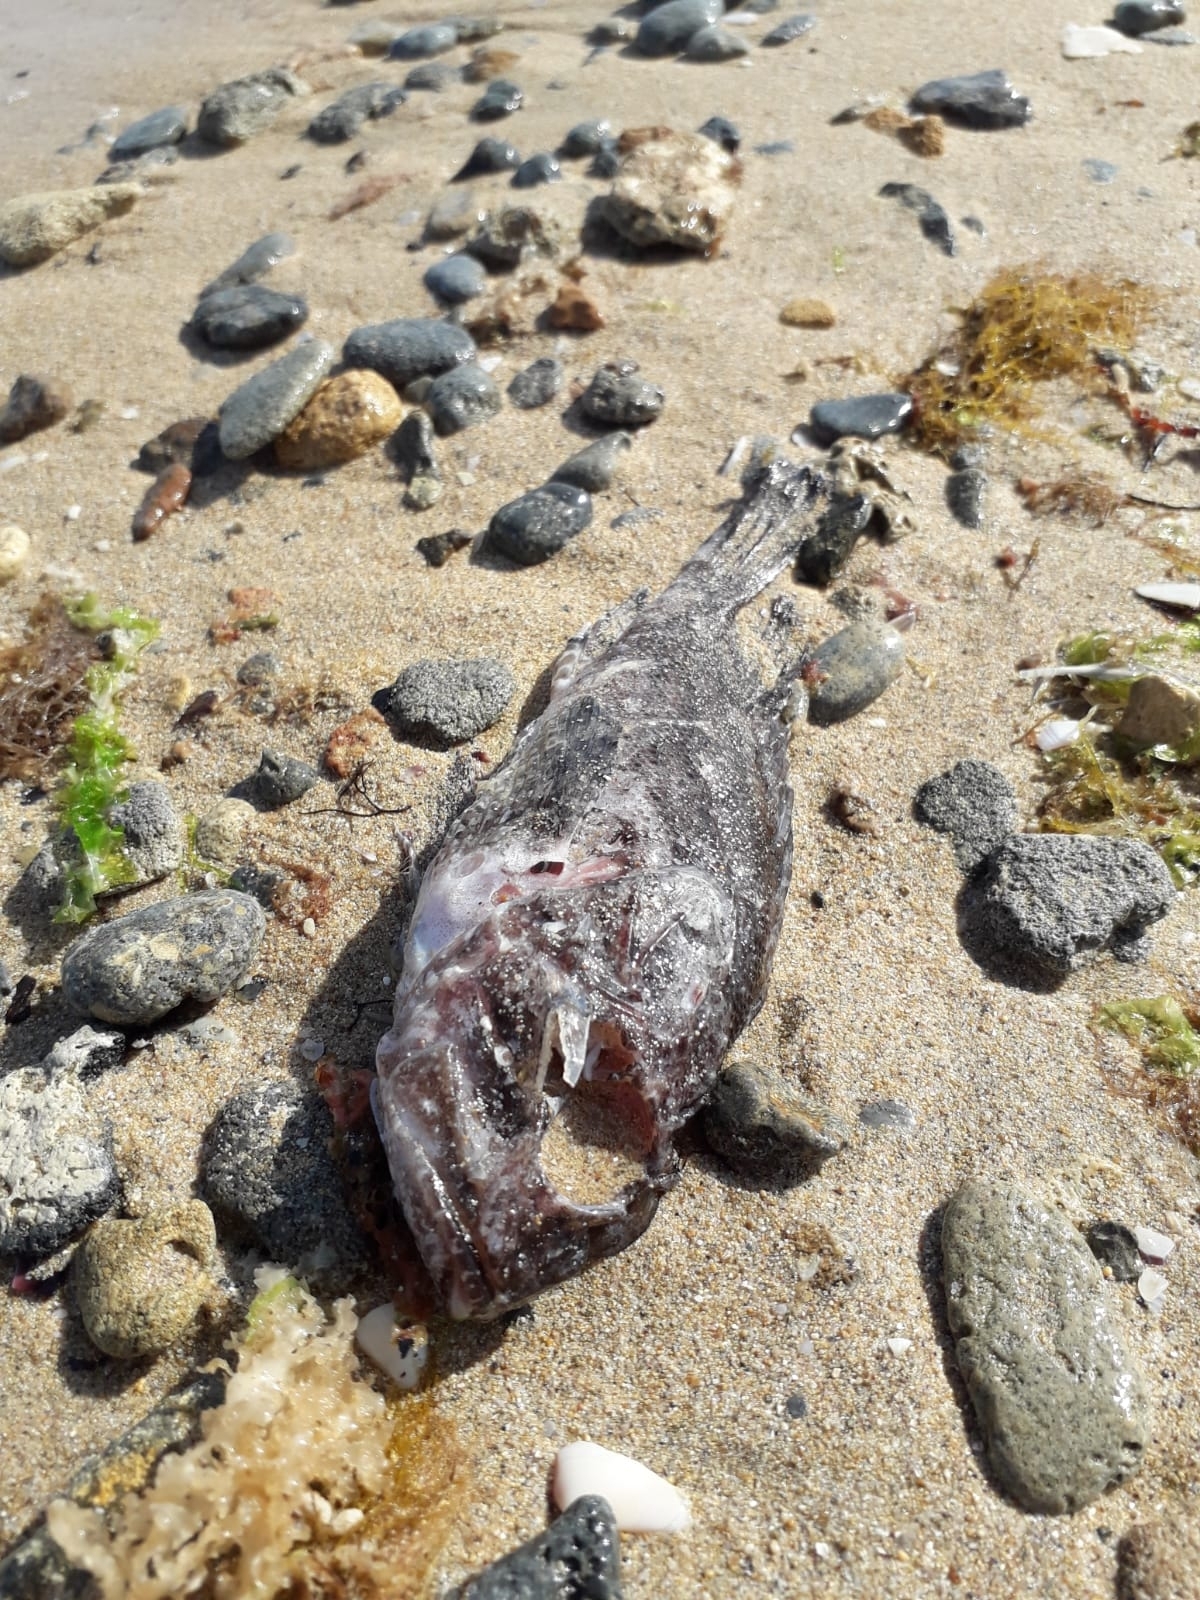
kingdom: Animalia
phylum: Chordata
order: Scorpaeniformes
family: Scorpaenidae
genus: Scorpaena
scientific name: Scorpaena porcus
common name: Black scorpionfish
